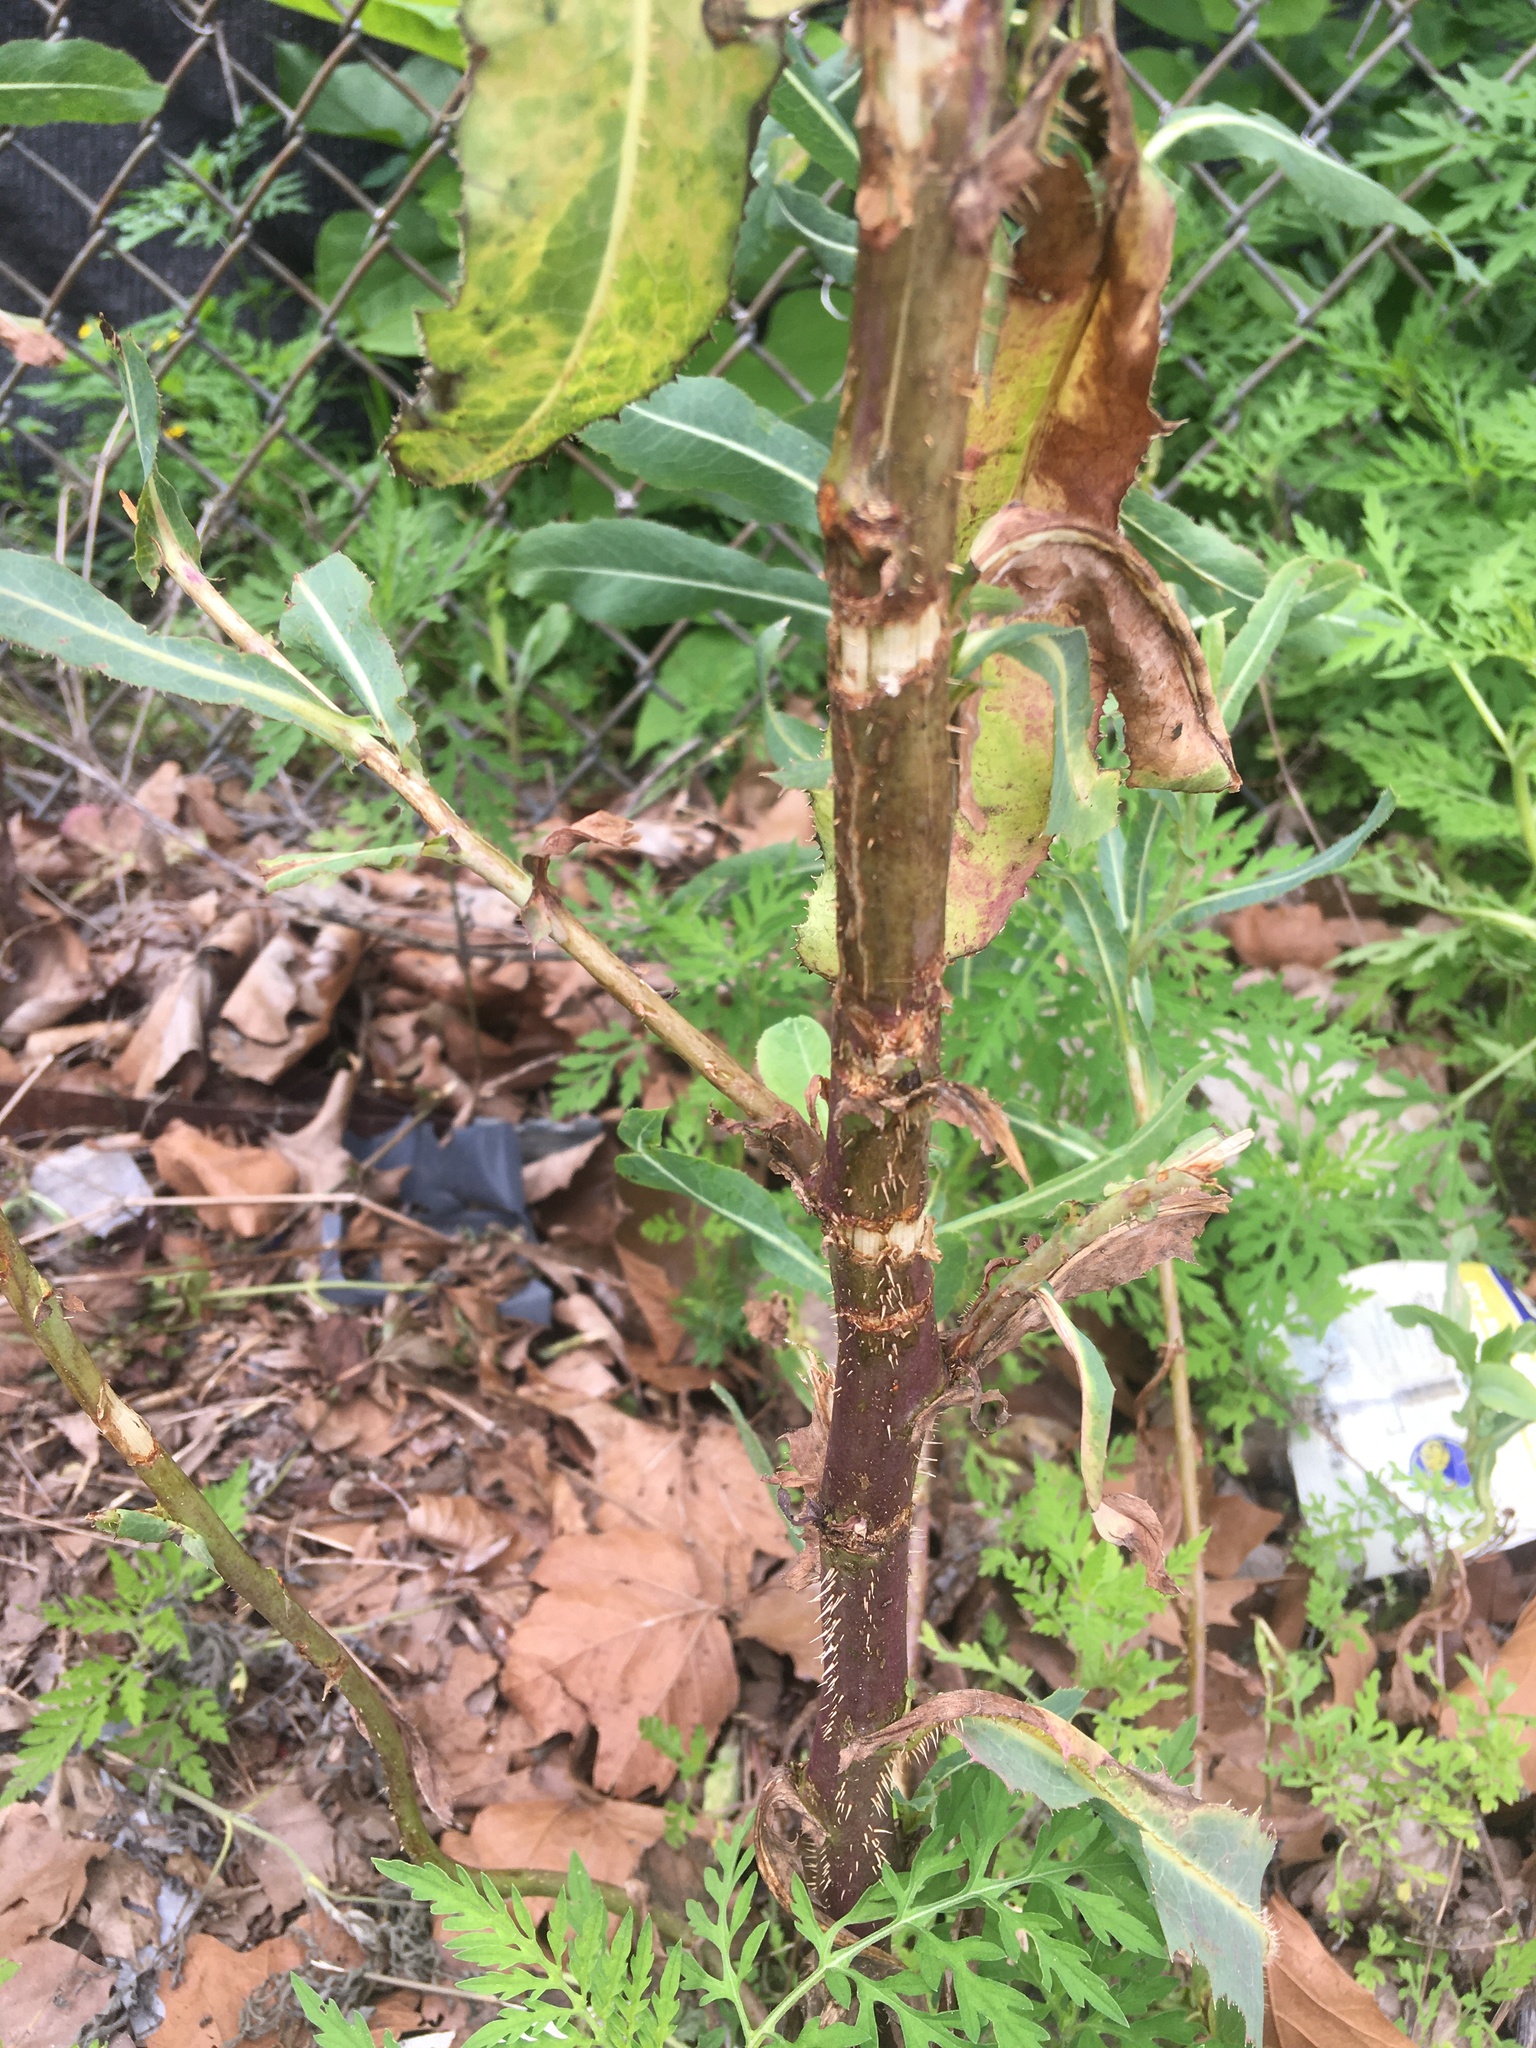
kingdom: Plantae
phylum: Tracheophyta
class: Magnoliopsida
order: Asterales
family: Asteraceae
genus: Lactuca
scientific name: Lactuca serriola
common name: Prickly lettuce
